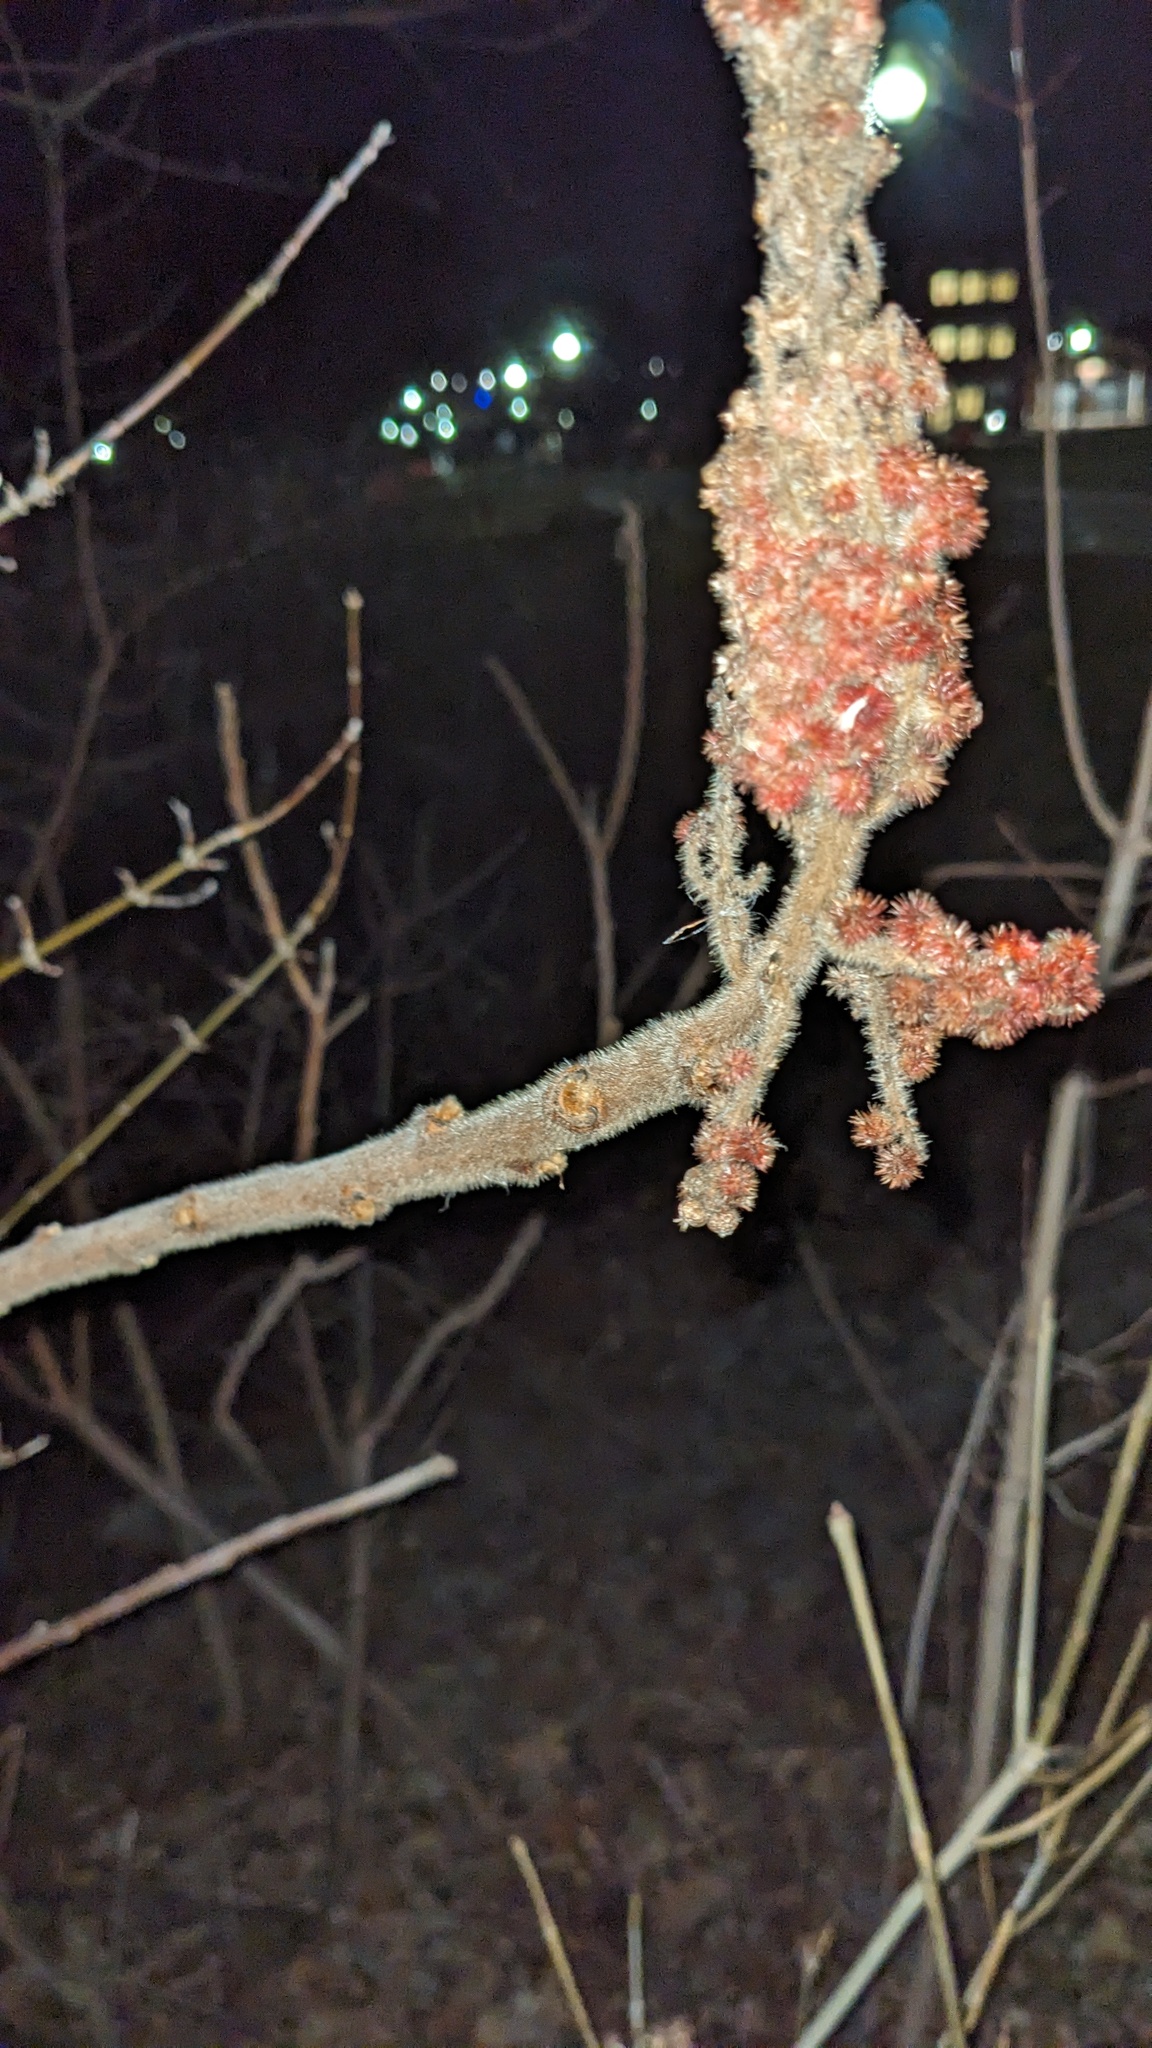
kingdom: Plantae
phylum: Tracheophyta
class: Magnoliopsida
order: Sapindales
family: Anacardiaceae
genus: Rhus
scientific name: Rhus typhina
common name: Staghorn sumac
